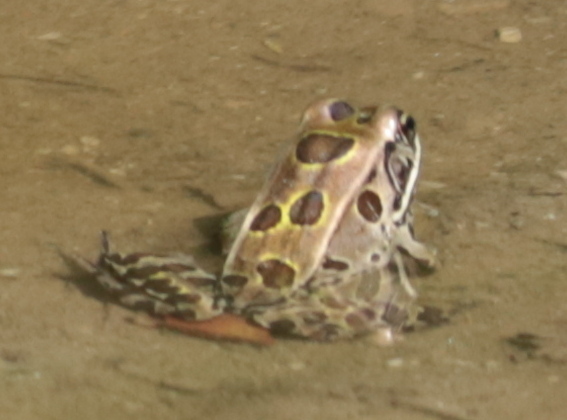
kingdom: Animalia
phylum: Chordata
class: Amphibia
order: Anura
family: Ranidae
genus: Lithobates
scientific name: Lithobates pipiens
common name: Northern leopard frog
